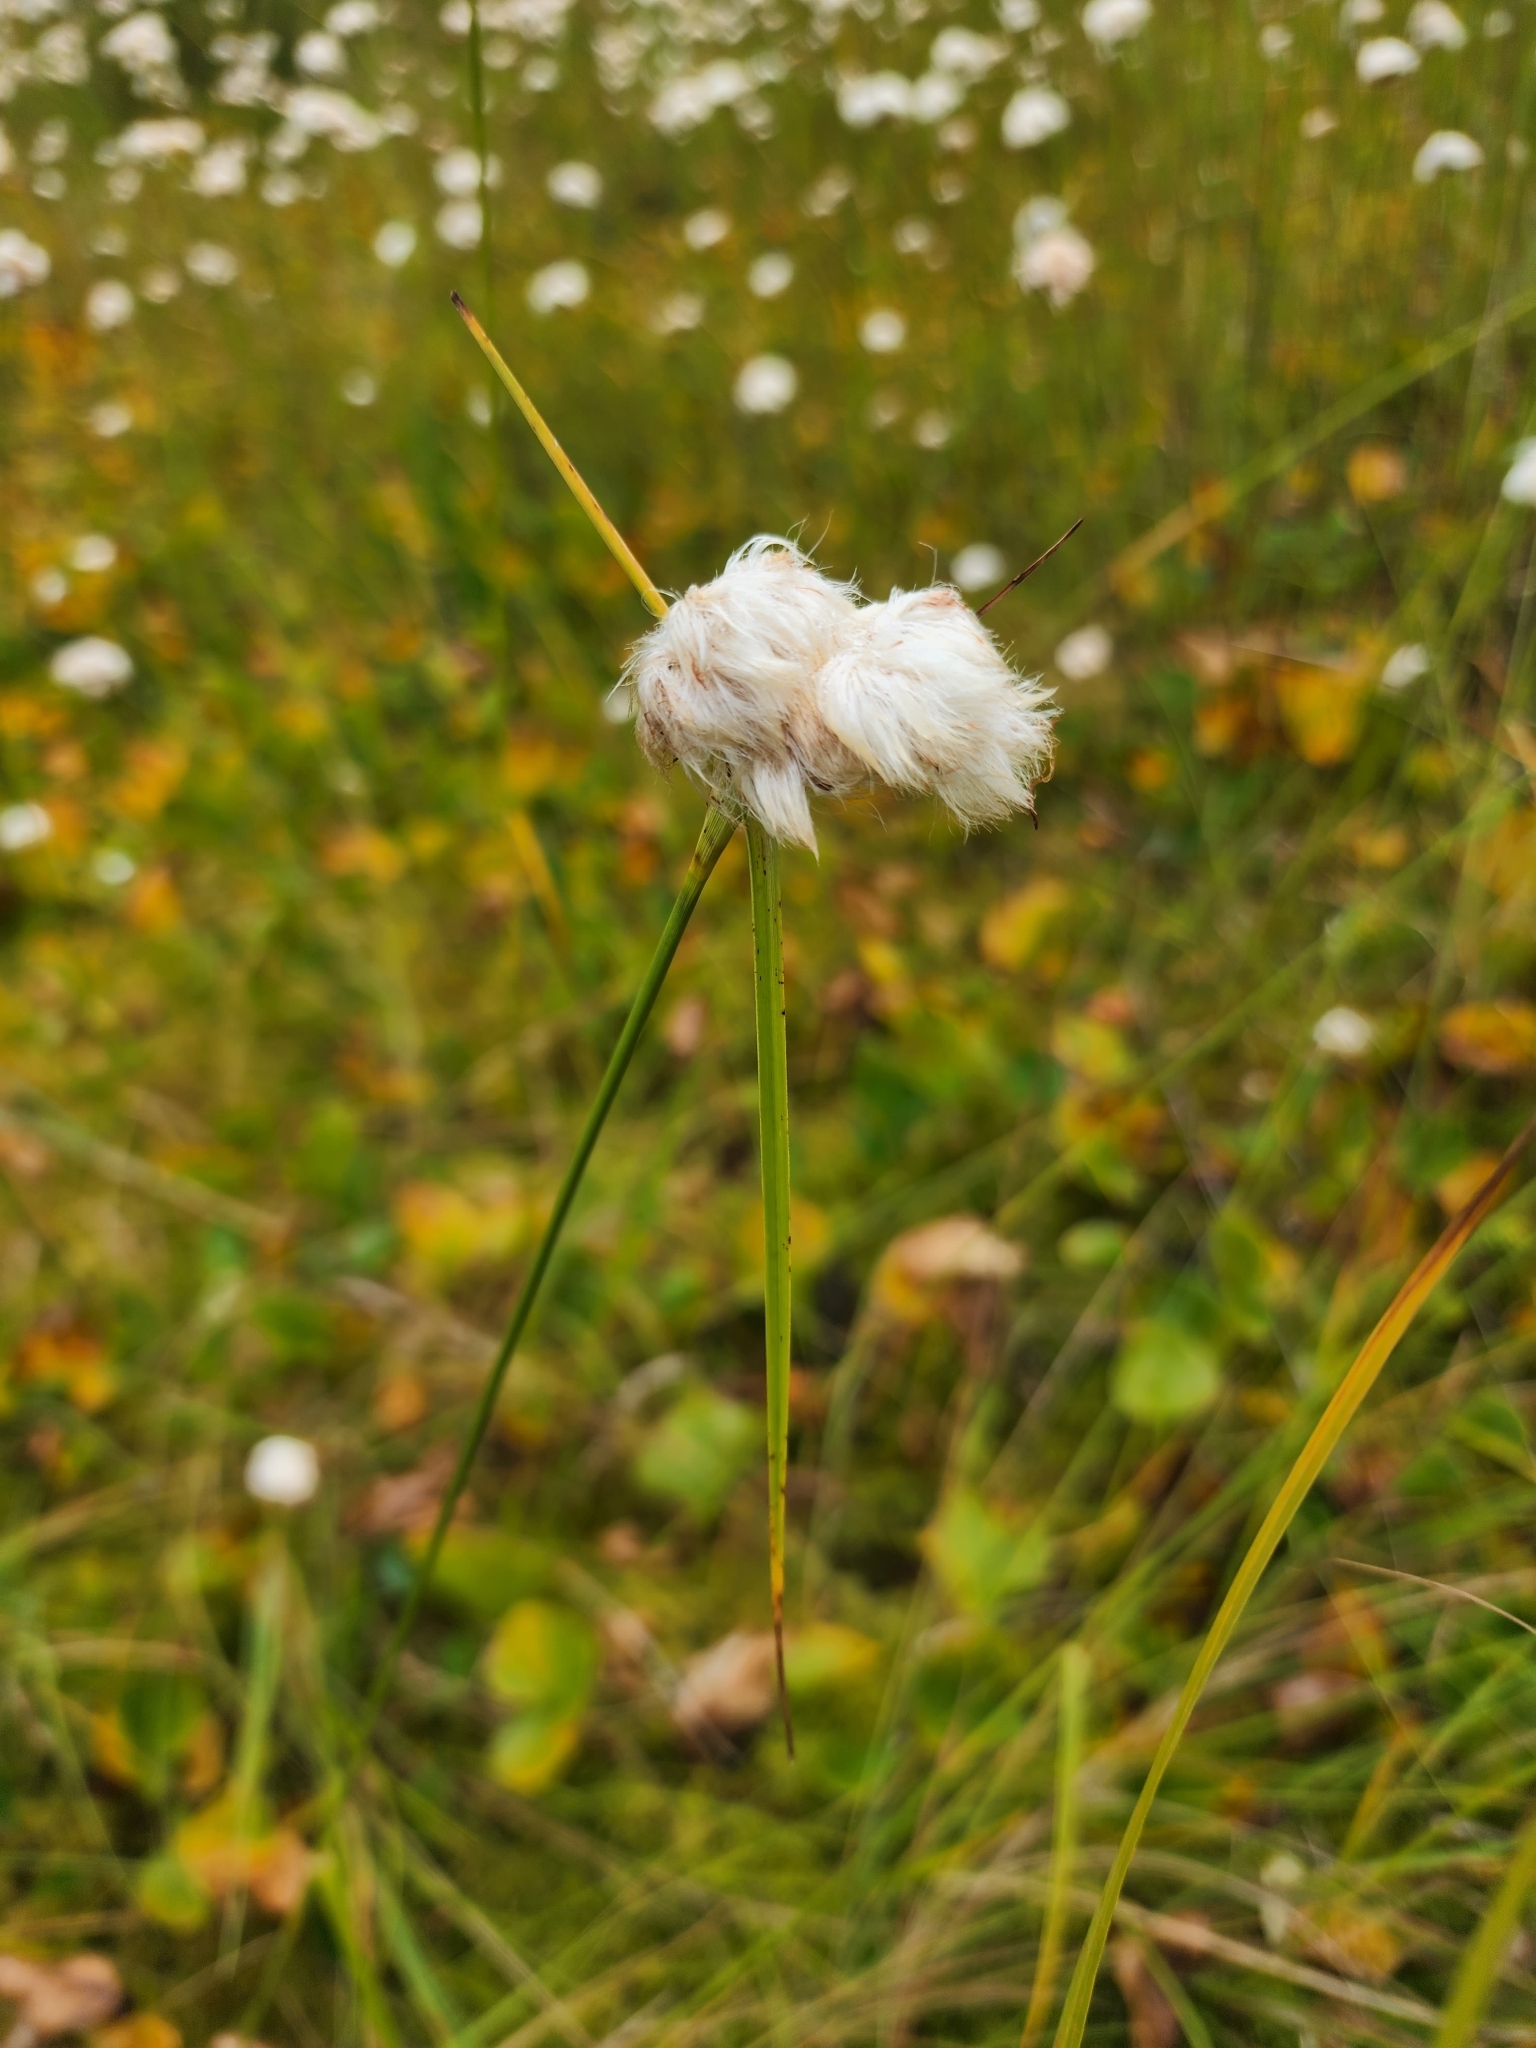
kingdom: Plantae
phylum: Tracheophyta
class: Liliopsida
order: Poales
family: Cyperaceae
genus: Eriophorum
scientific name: Eriophorum virginicum
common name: Tawny cottongrass
